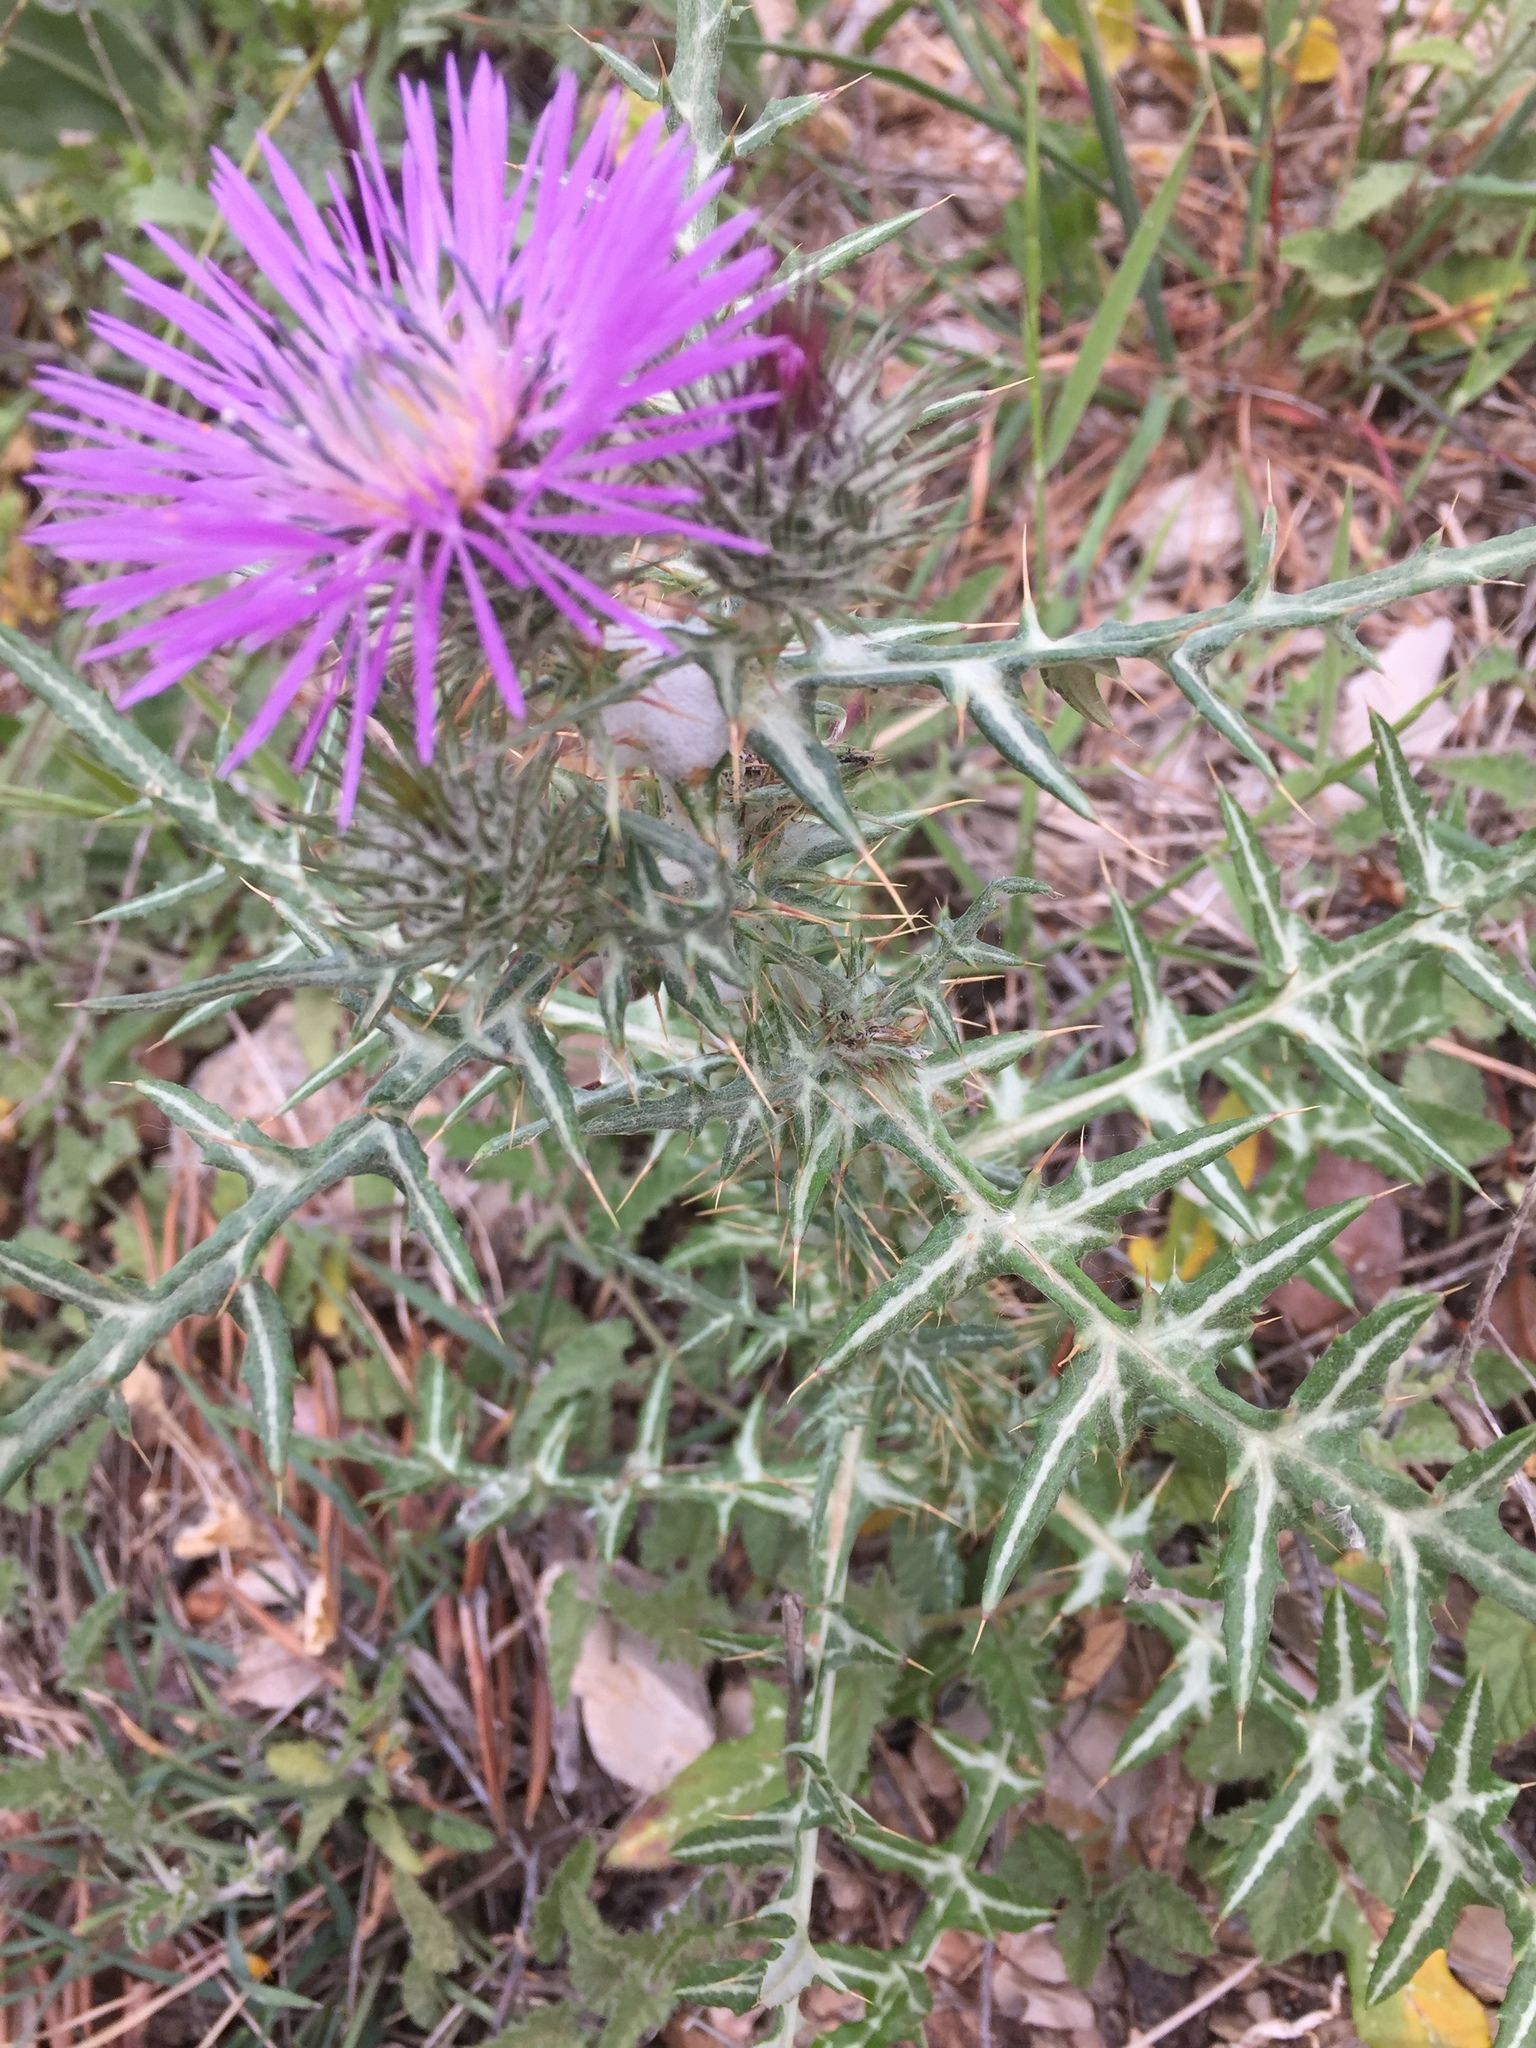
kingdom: Plantae
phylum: Tracheophyta
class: Magnoliopsida
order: Asterales
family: Asteraceae
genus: Galactites
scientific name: Galactites tomentosa
